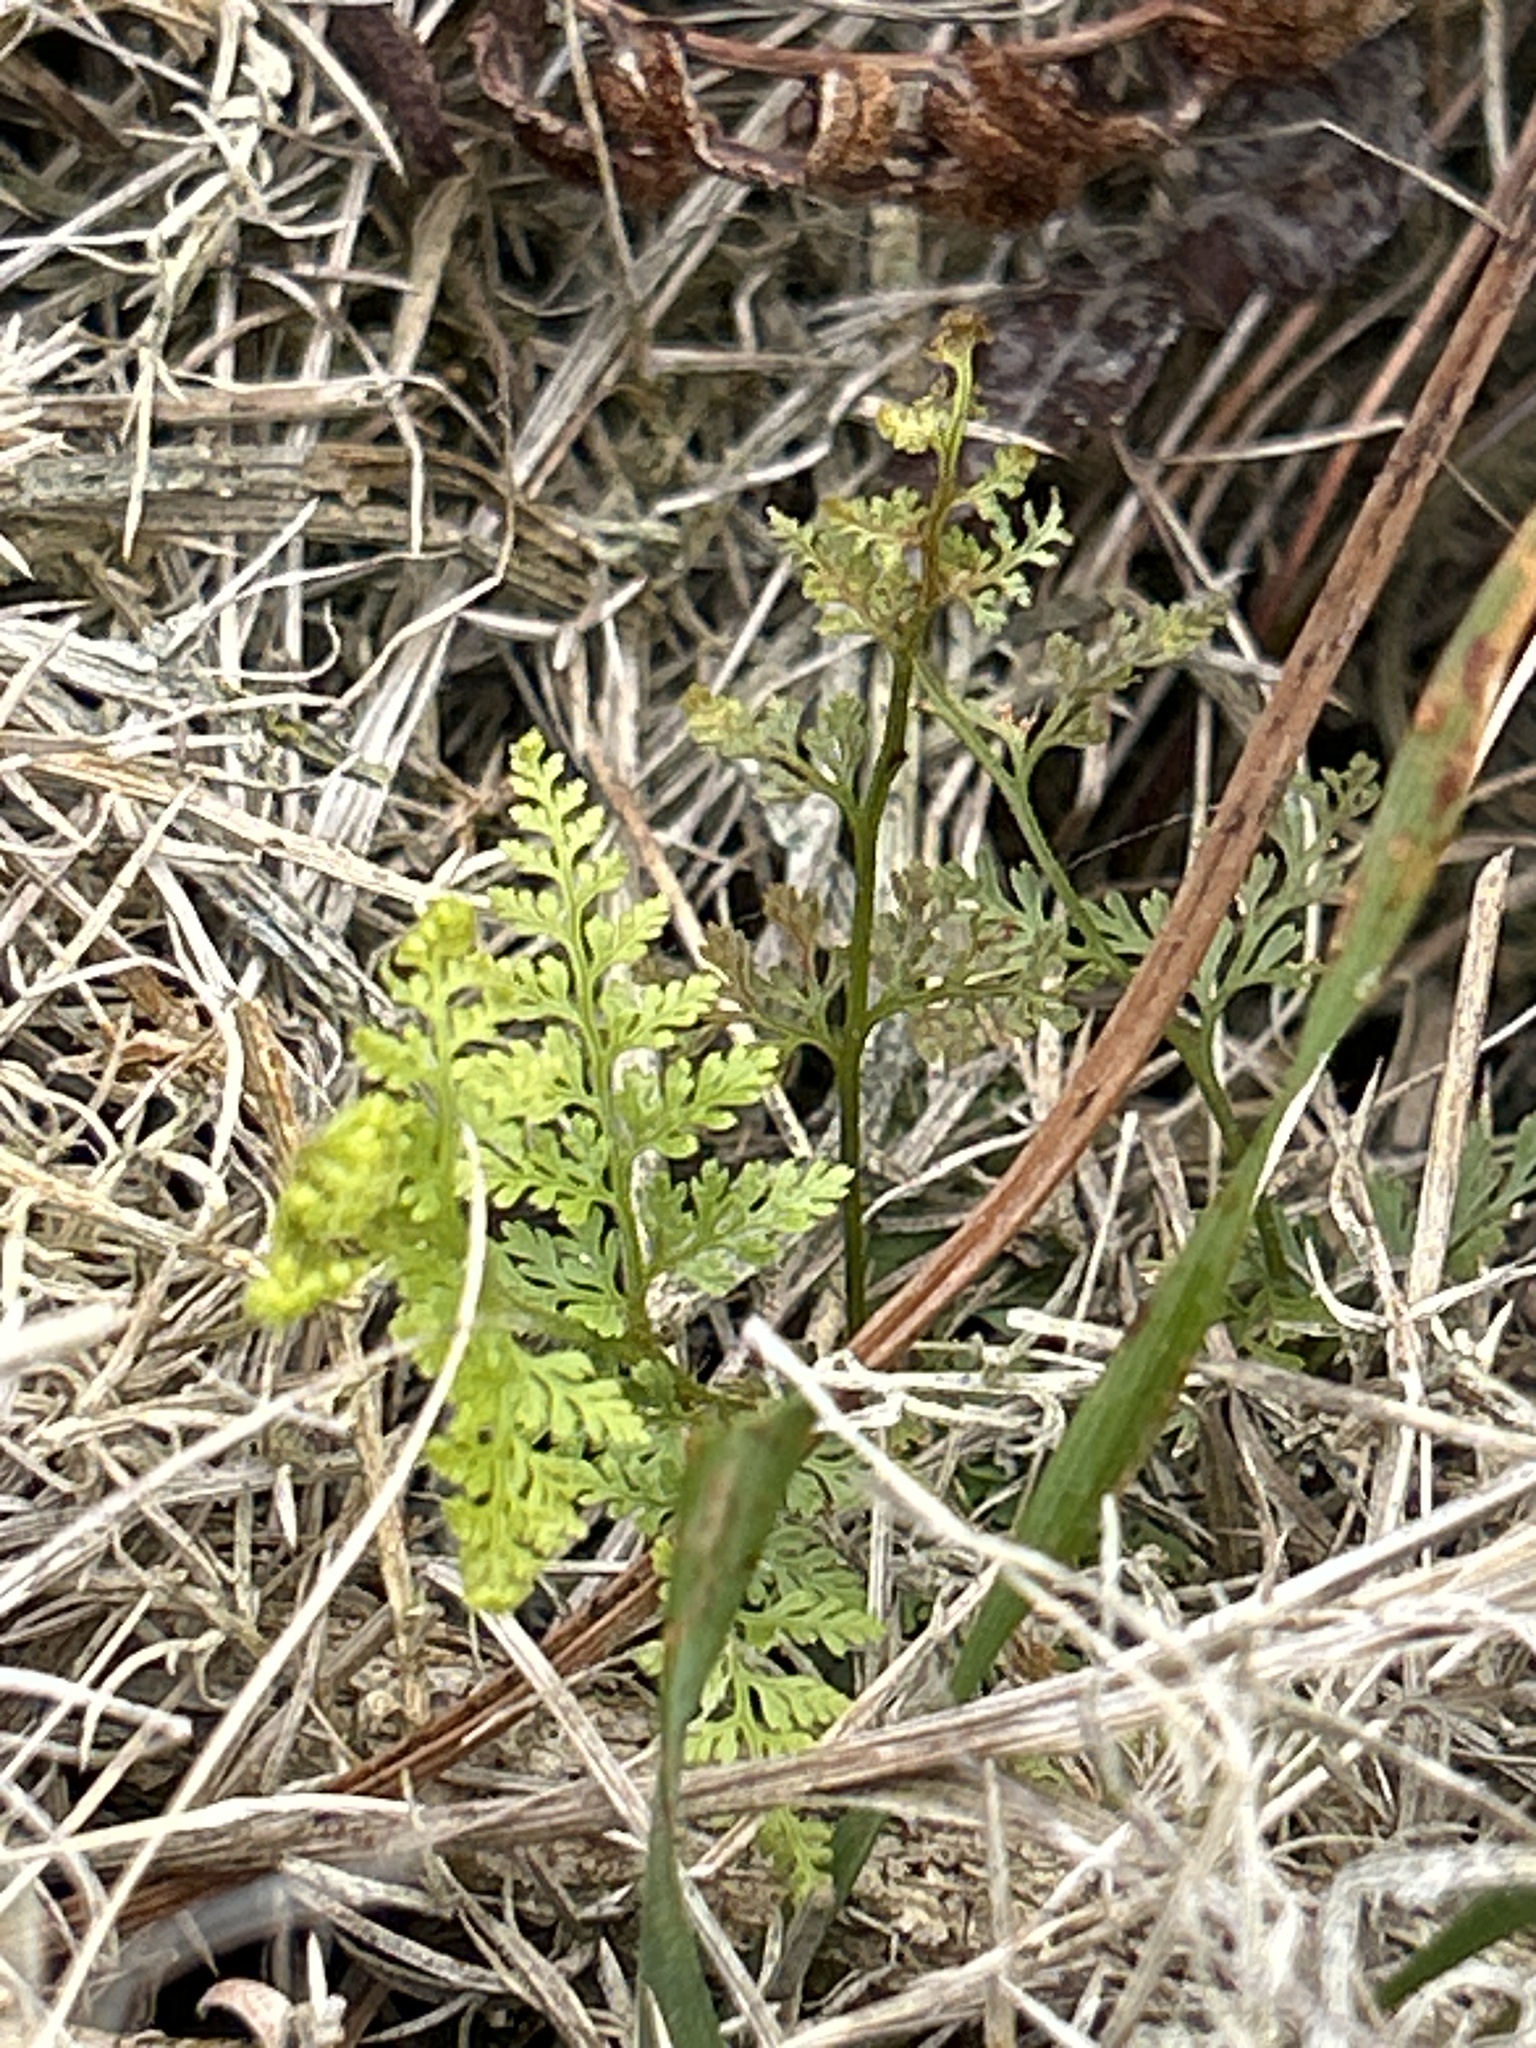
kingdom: Plantae
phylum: Tracheophyta
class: Polypodiopsida
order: Polypodiales
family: Dennstaedtiaceae
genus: Paesia
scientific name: Paesia scaberula
